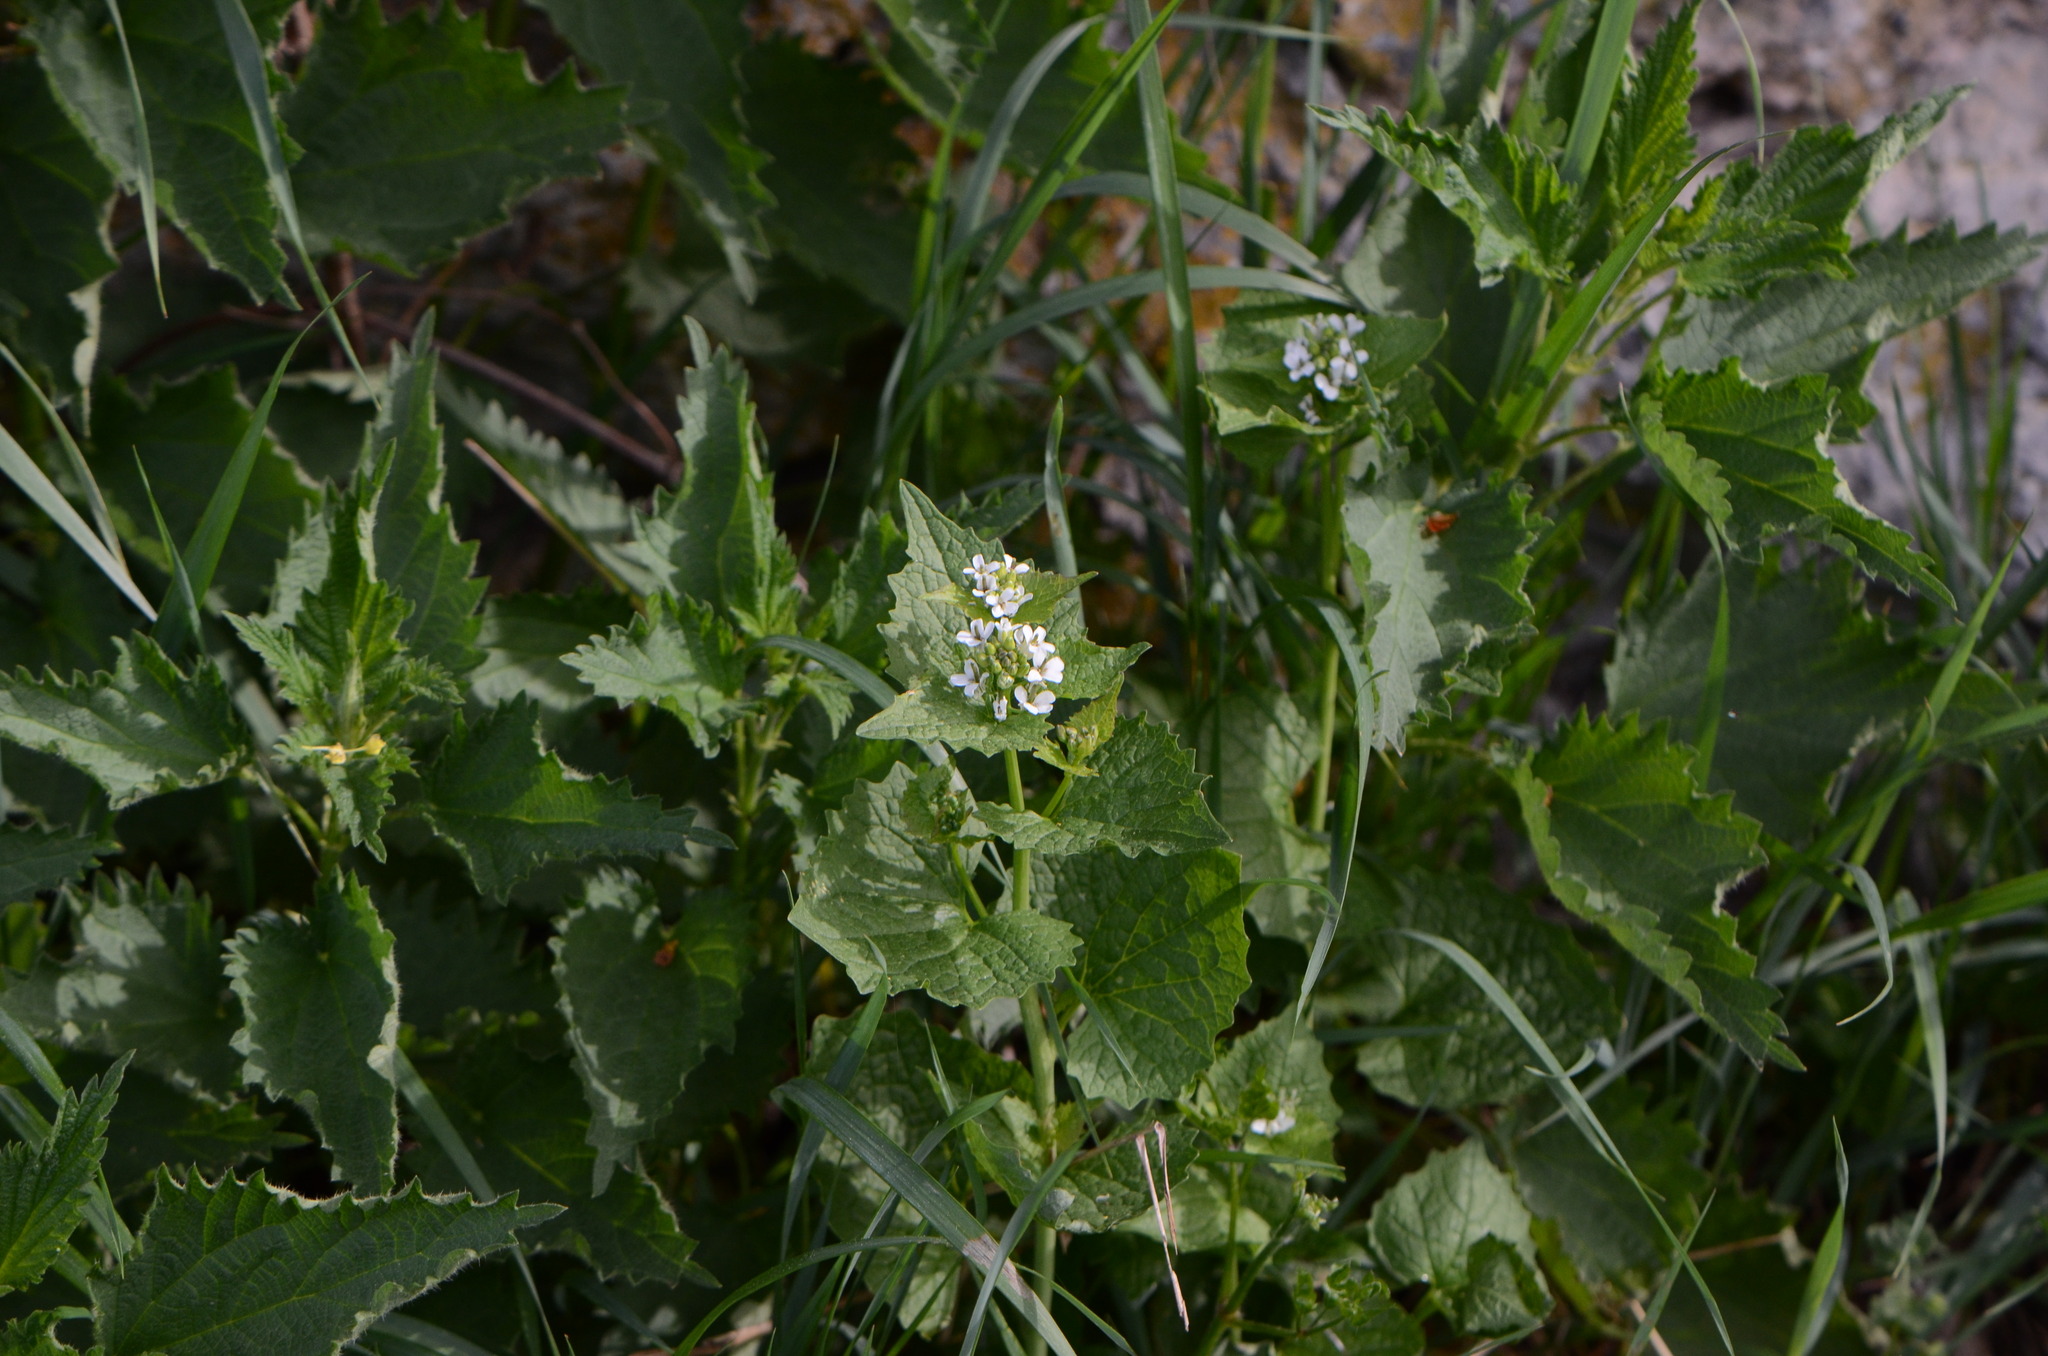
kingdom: Plantae
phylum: Tracheophyta
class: Magnoliopsida
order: Brassicales
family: Brassicaceae
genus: Alliaria
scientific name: Alliaria petiolata
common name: Garlic mustard
